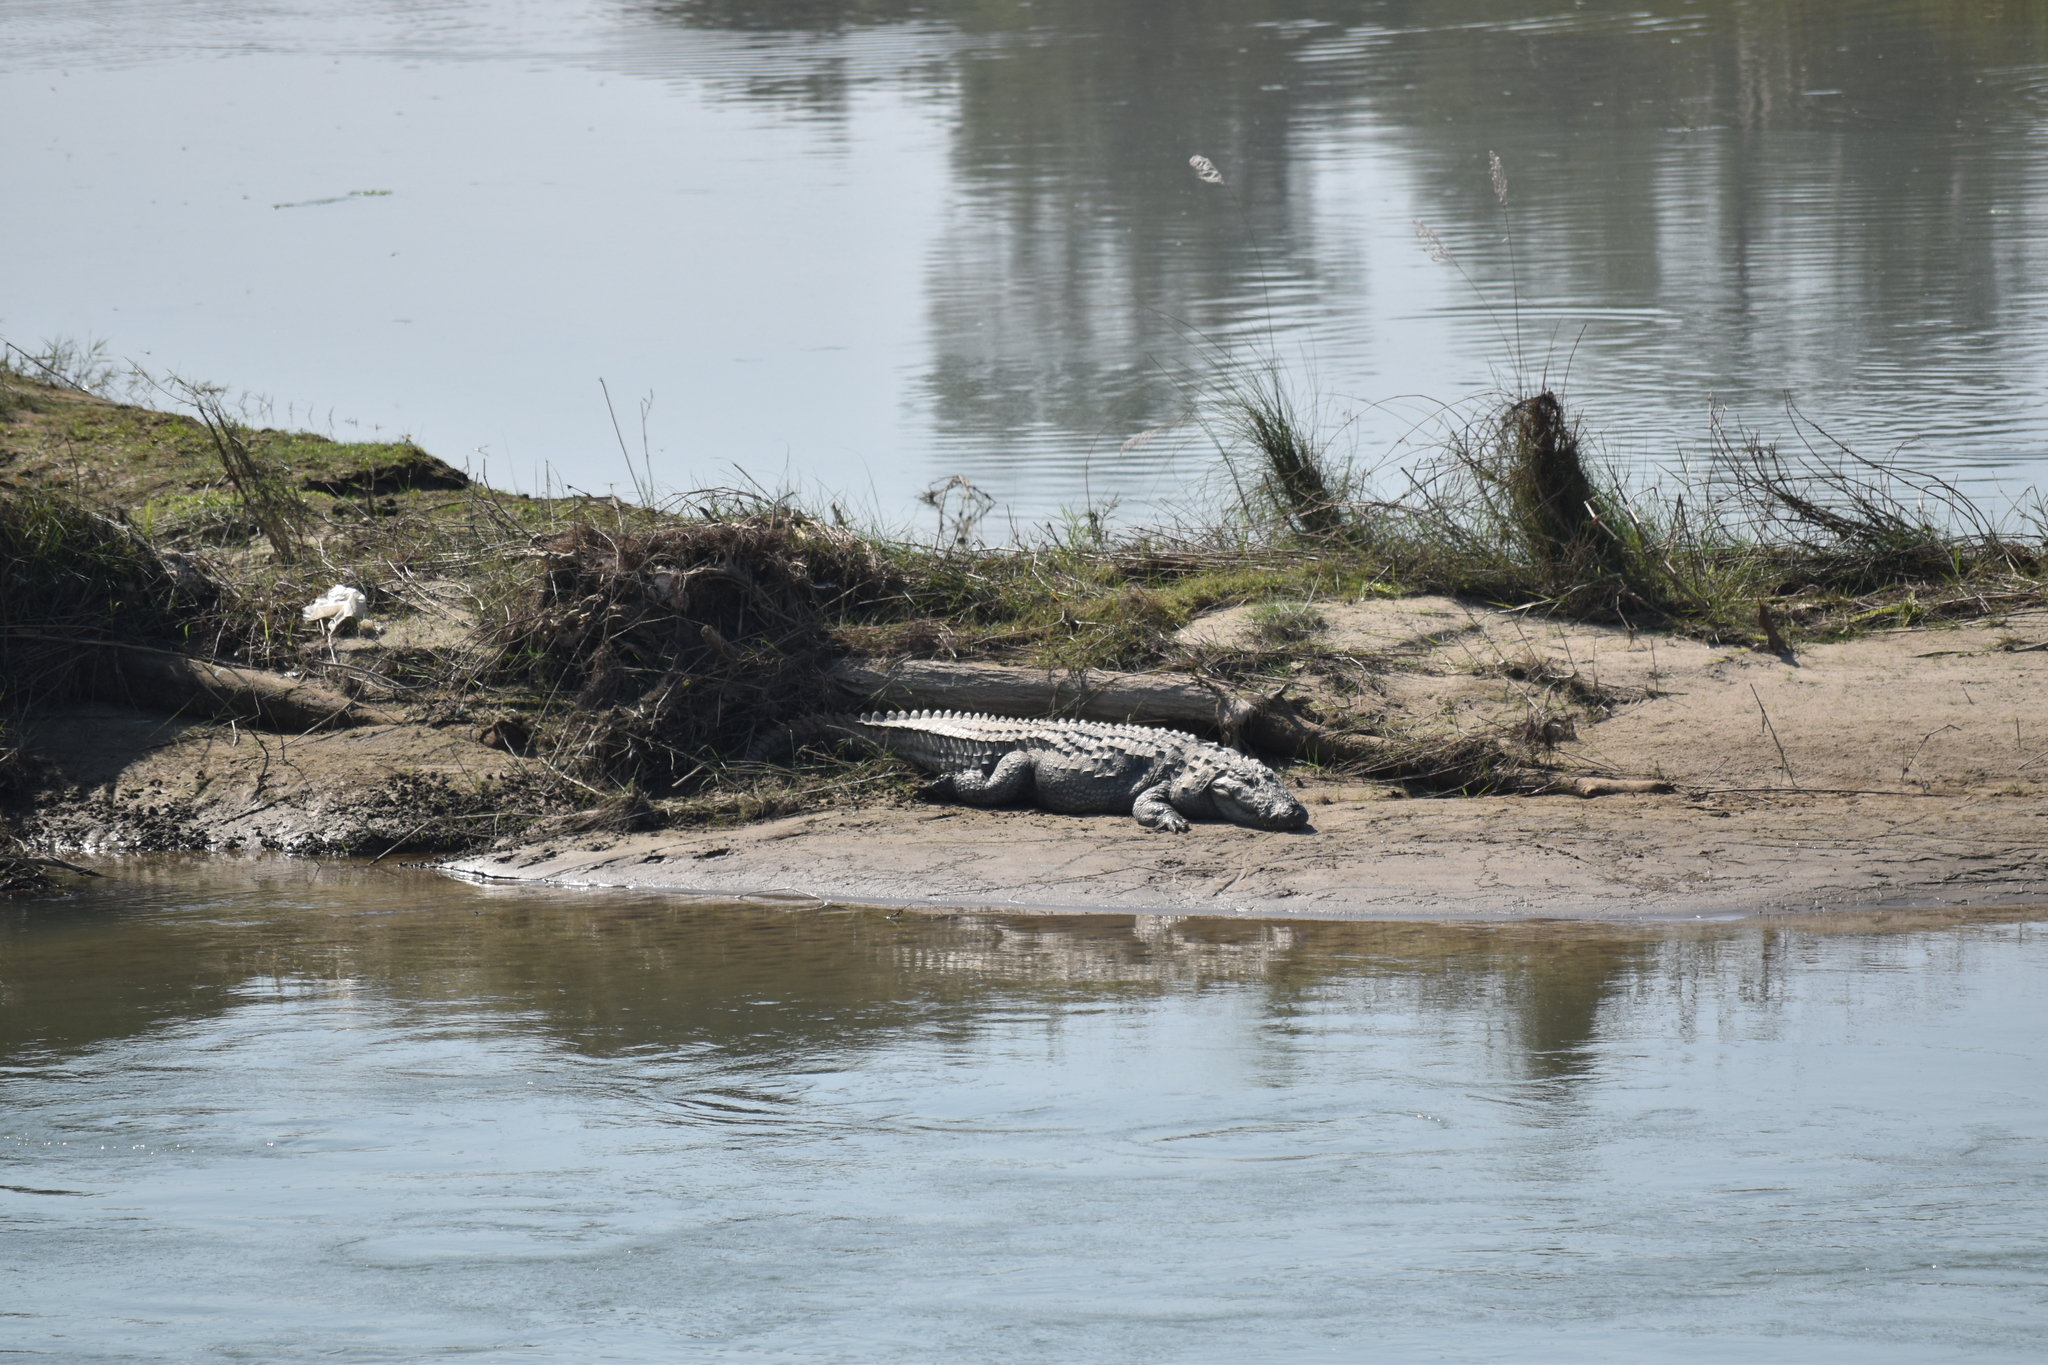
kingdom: Animalia
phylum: Chordata
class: Crocodylia
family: Crocodylidae
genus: Crocodylus
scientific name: Crocodylus palustris
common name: Mugger crocodile
